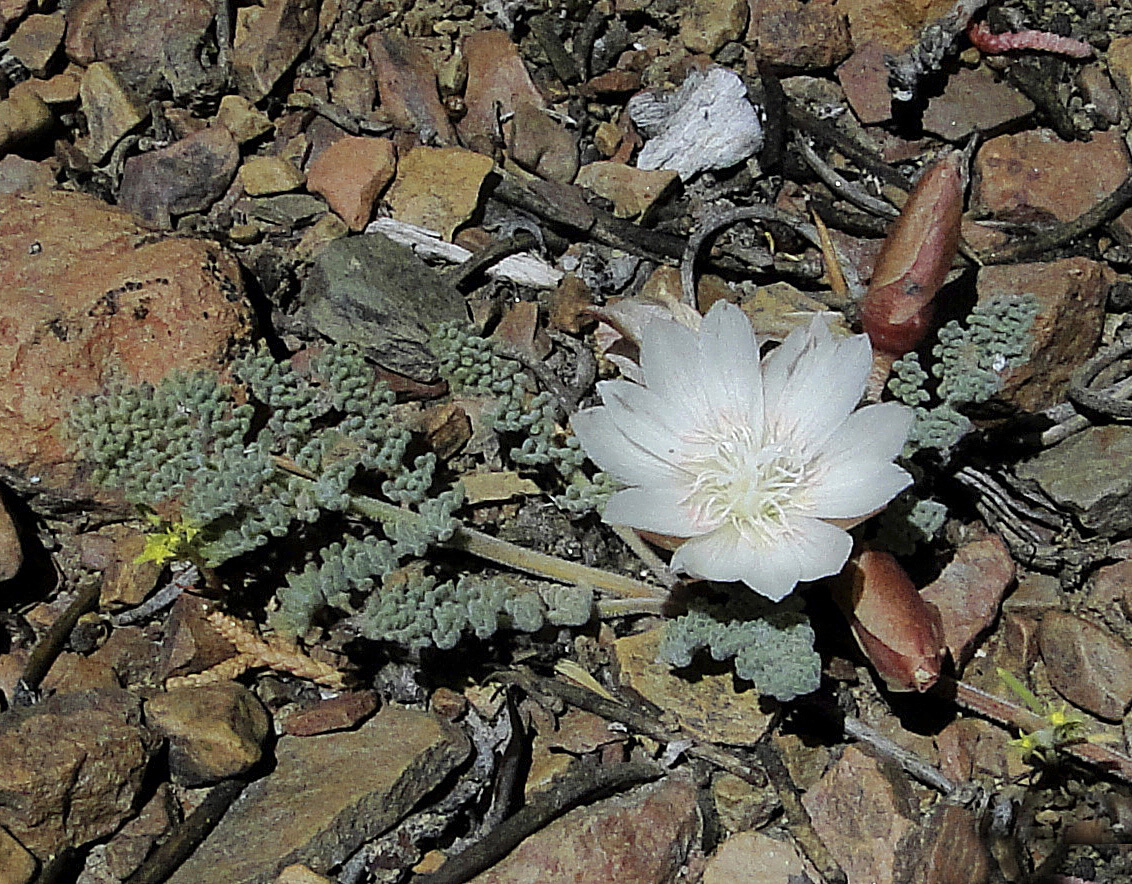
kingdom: Plantae
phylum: Tracheophyta
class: Magnoliopsida
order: Caryophyllales
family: Montiaceae
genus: Lewisia
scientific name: Lewisia rediviva
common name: Bitter-root
